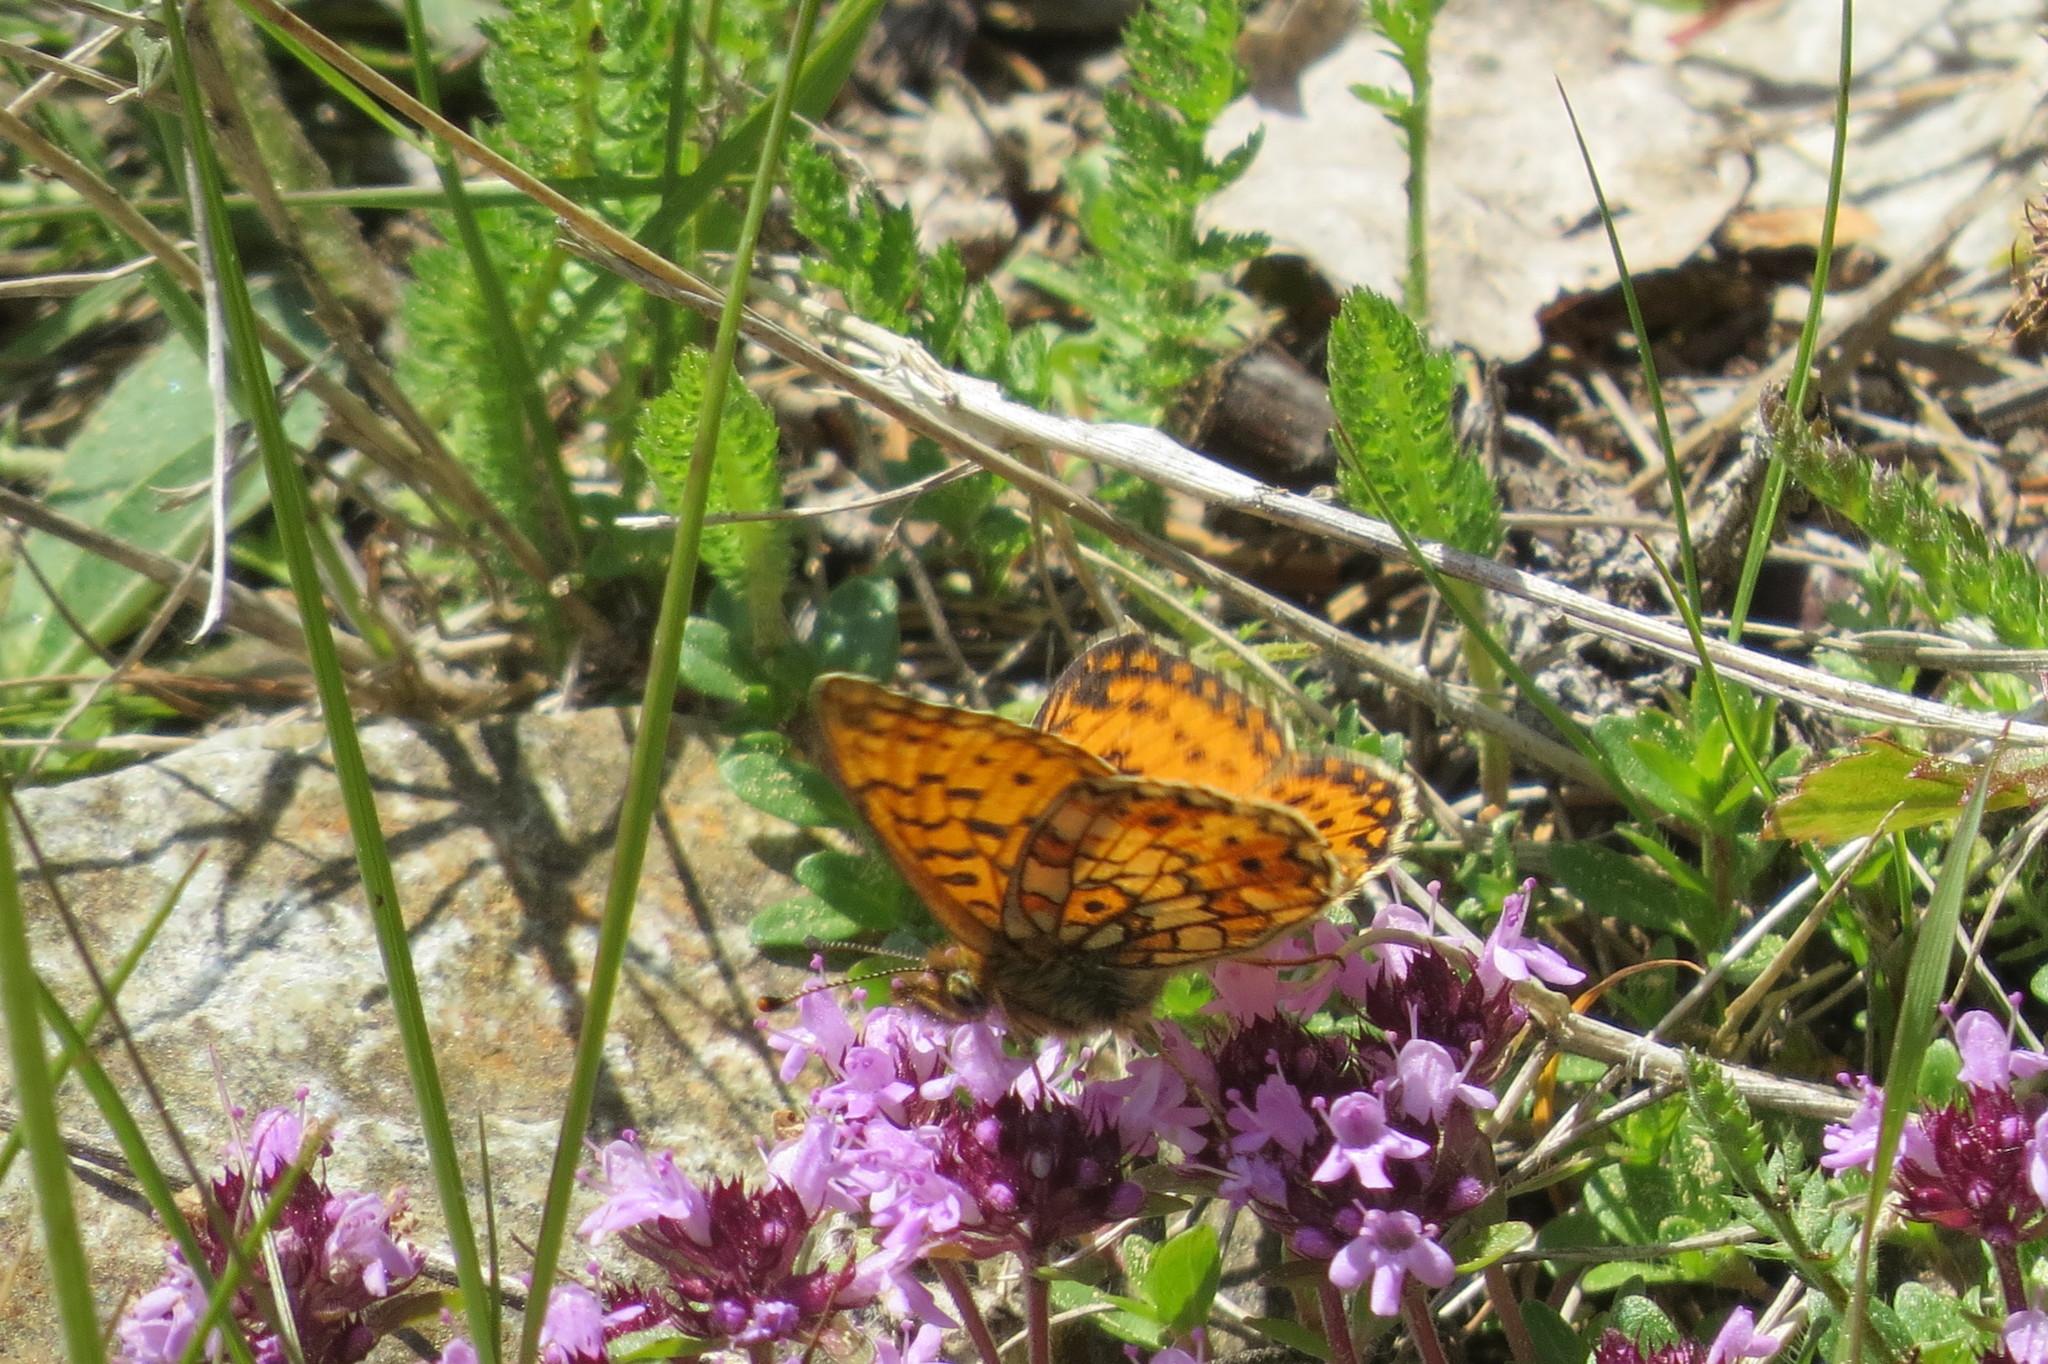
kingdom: Animalia
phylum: Arthropoda
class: Insecta
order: Lepidoptera
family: Nymphalidae
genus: Boloria
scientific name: Boloria selene
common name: Small pearl-bordered fritillary
